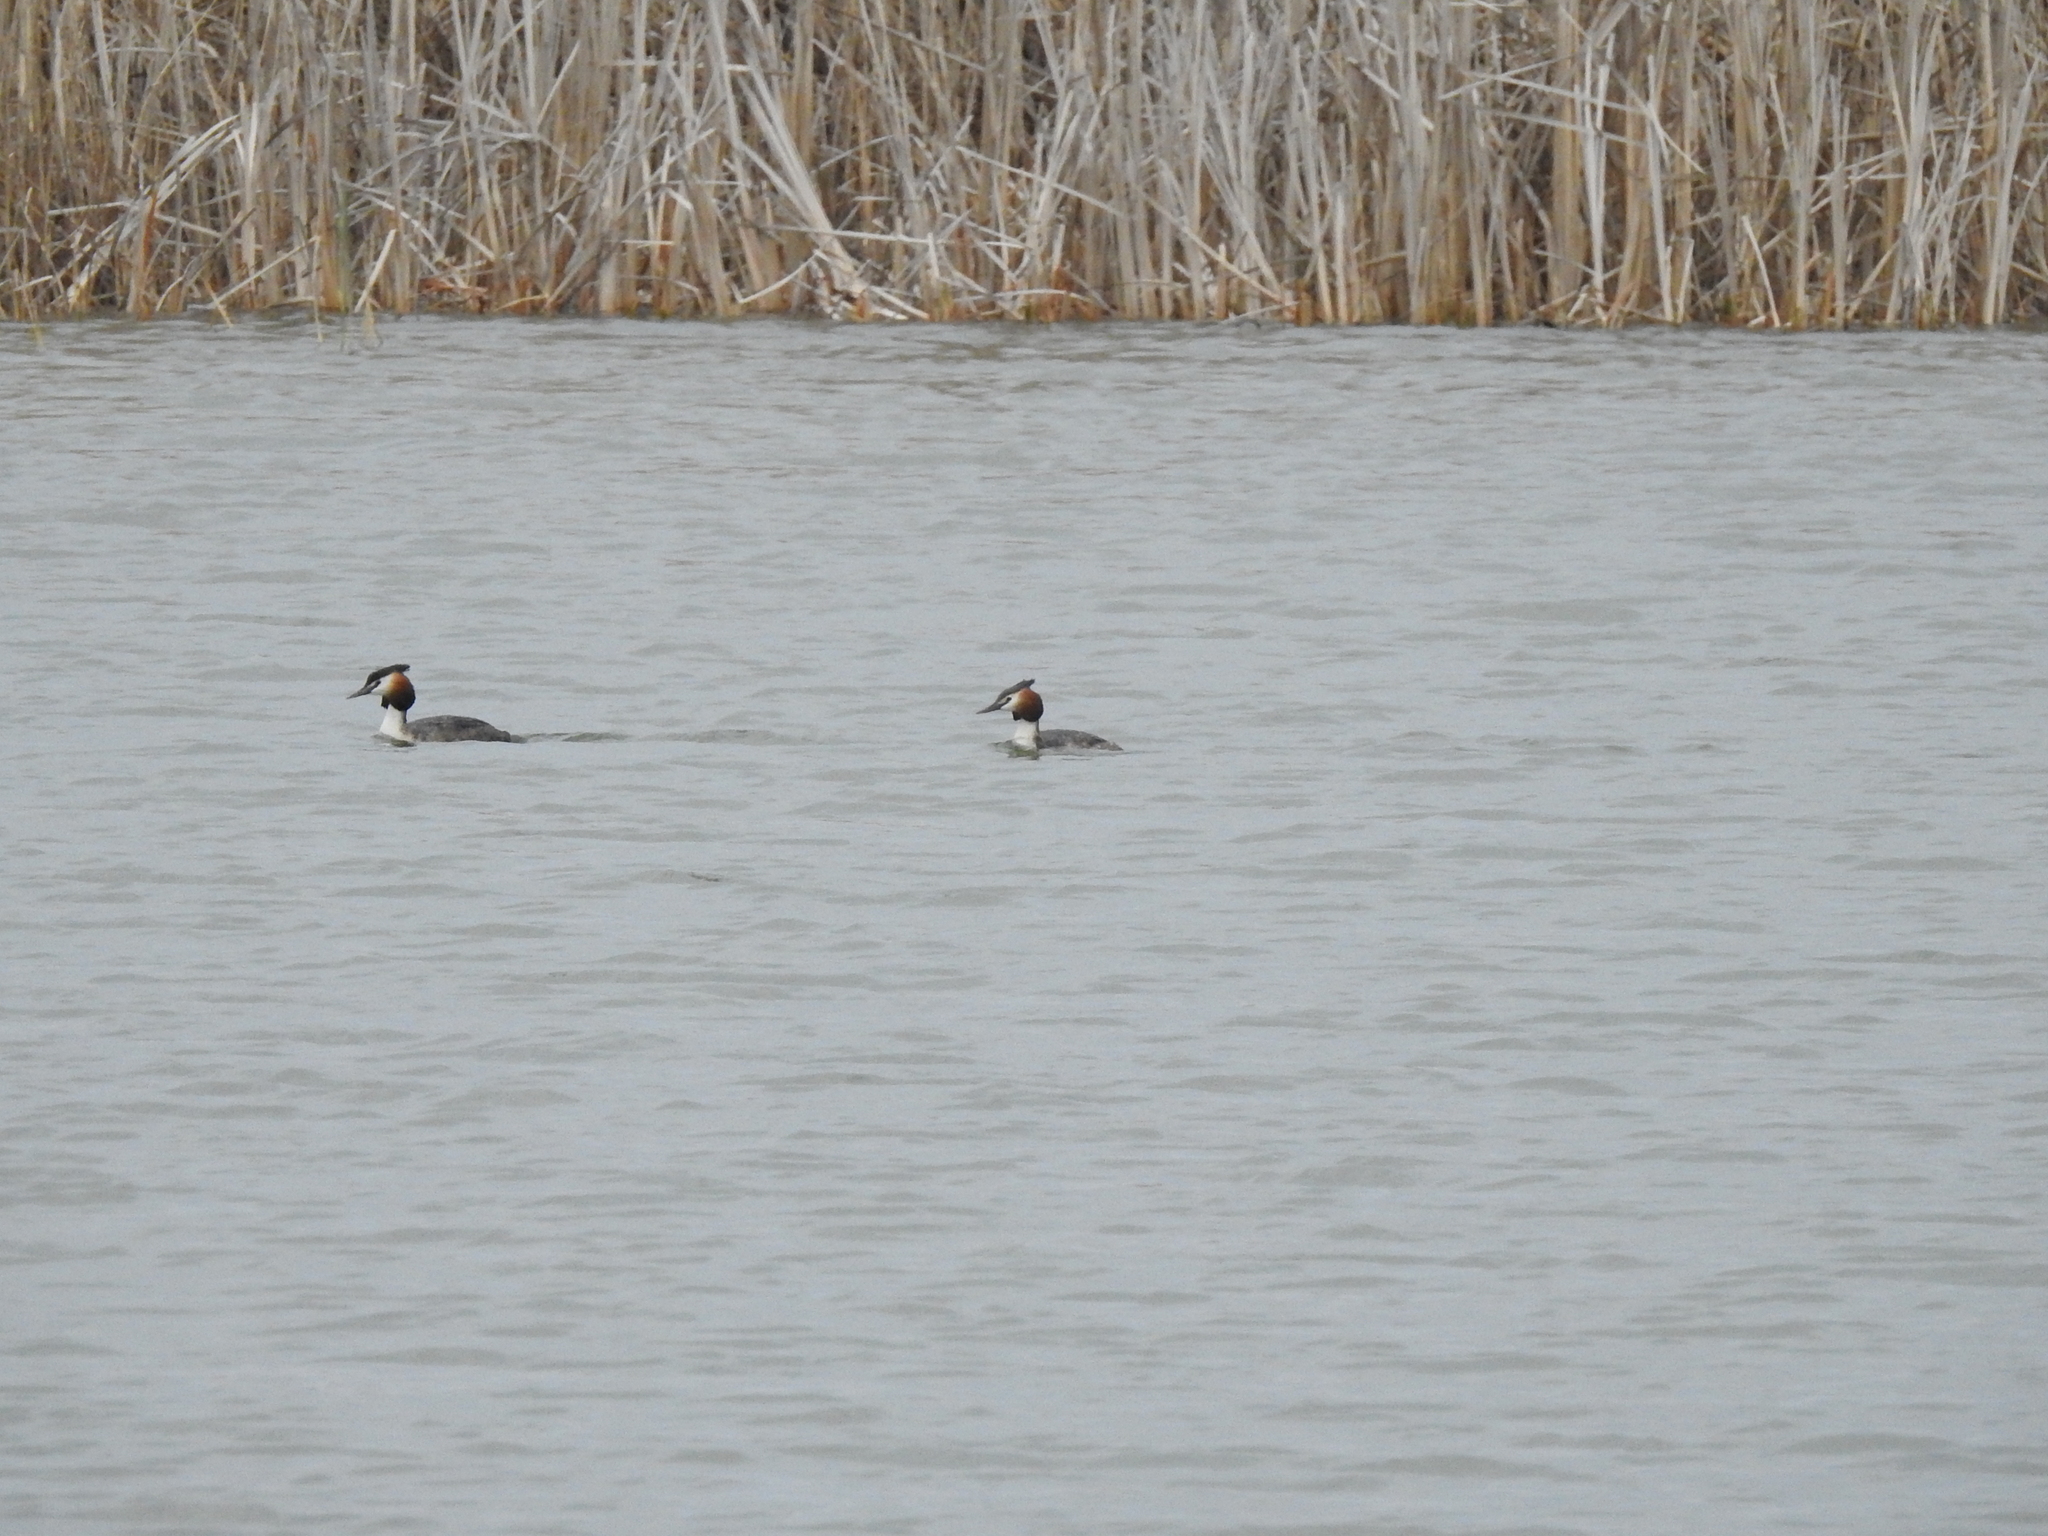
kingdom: Animalia
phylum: Chordata
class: Aves
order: Podicipediformes
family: Podicipedidae
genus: Podiceps
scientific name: Podiceps cristatus
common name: Great crested grebe
